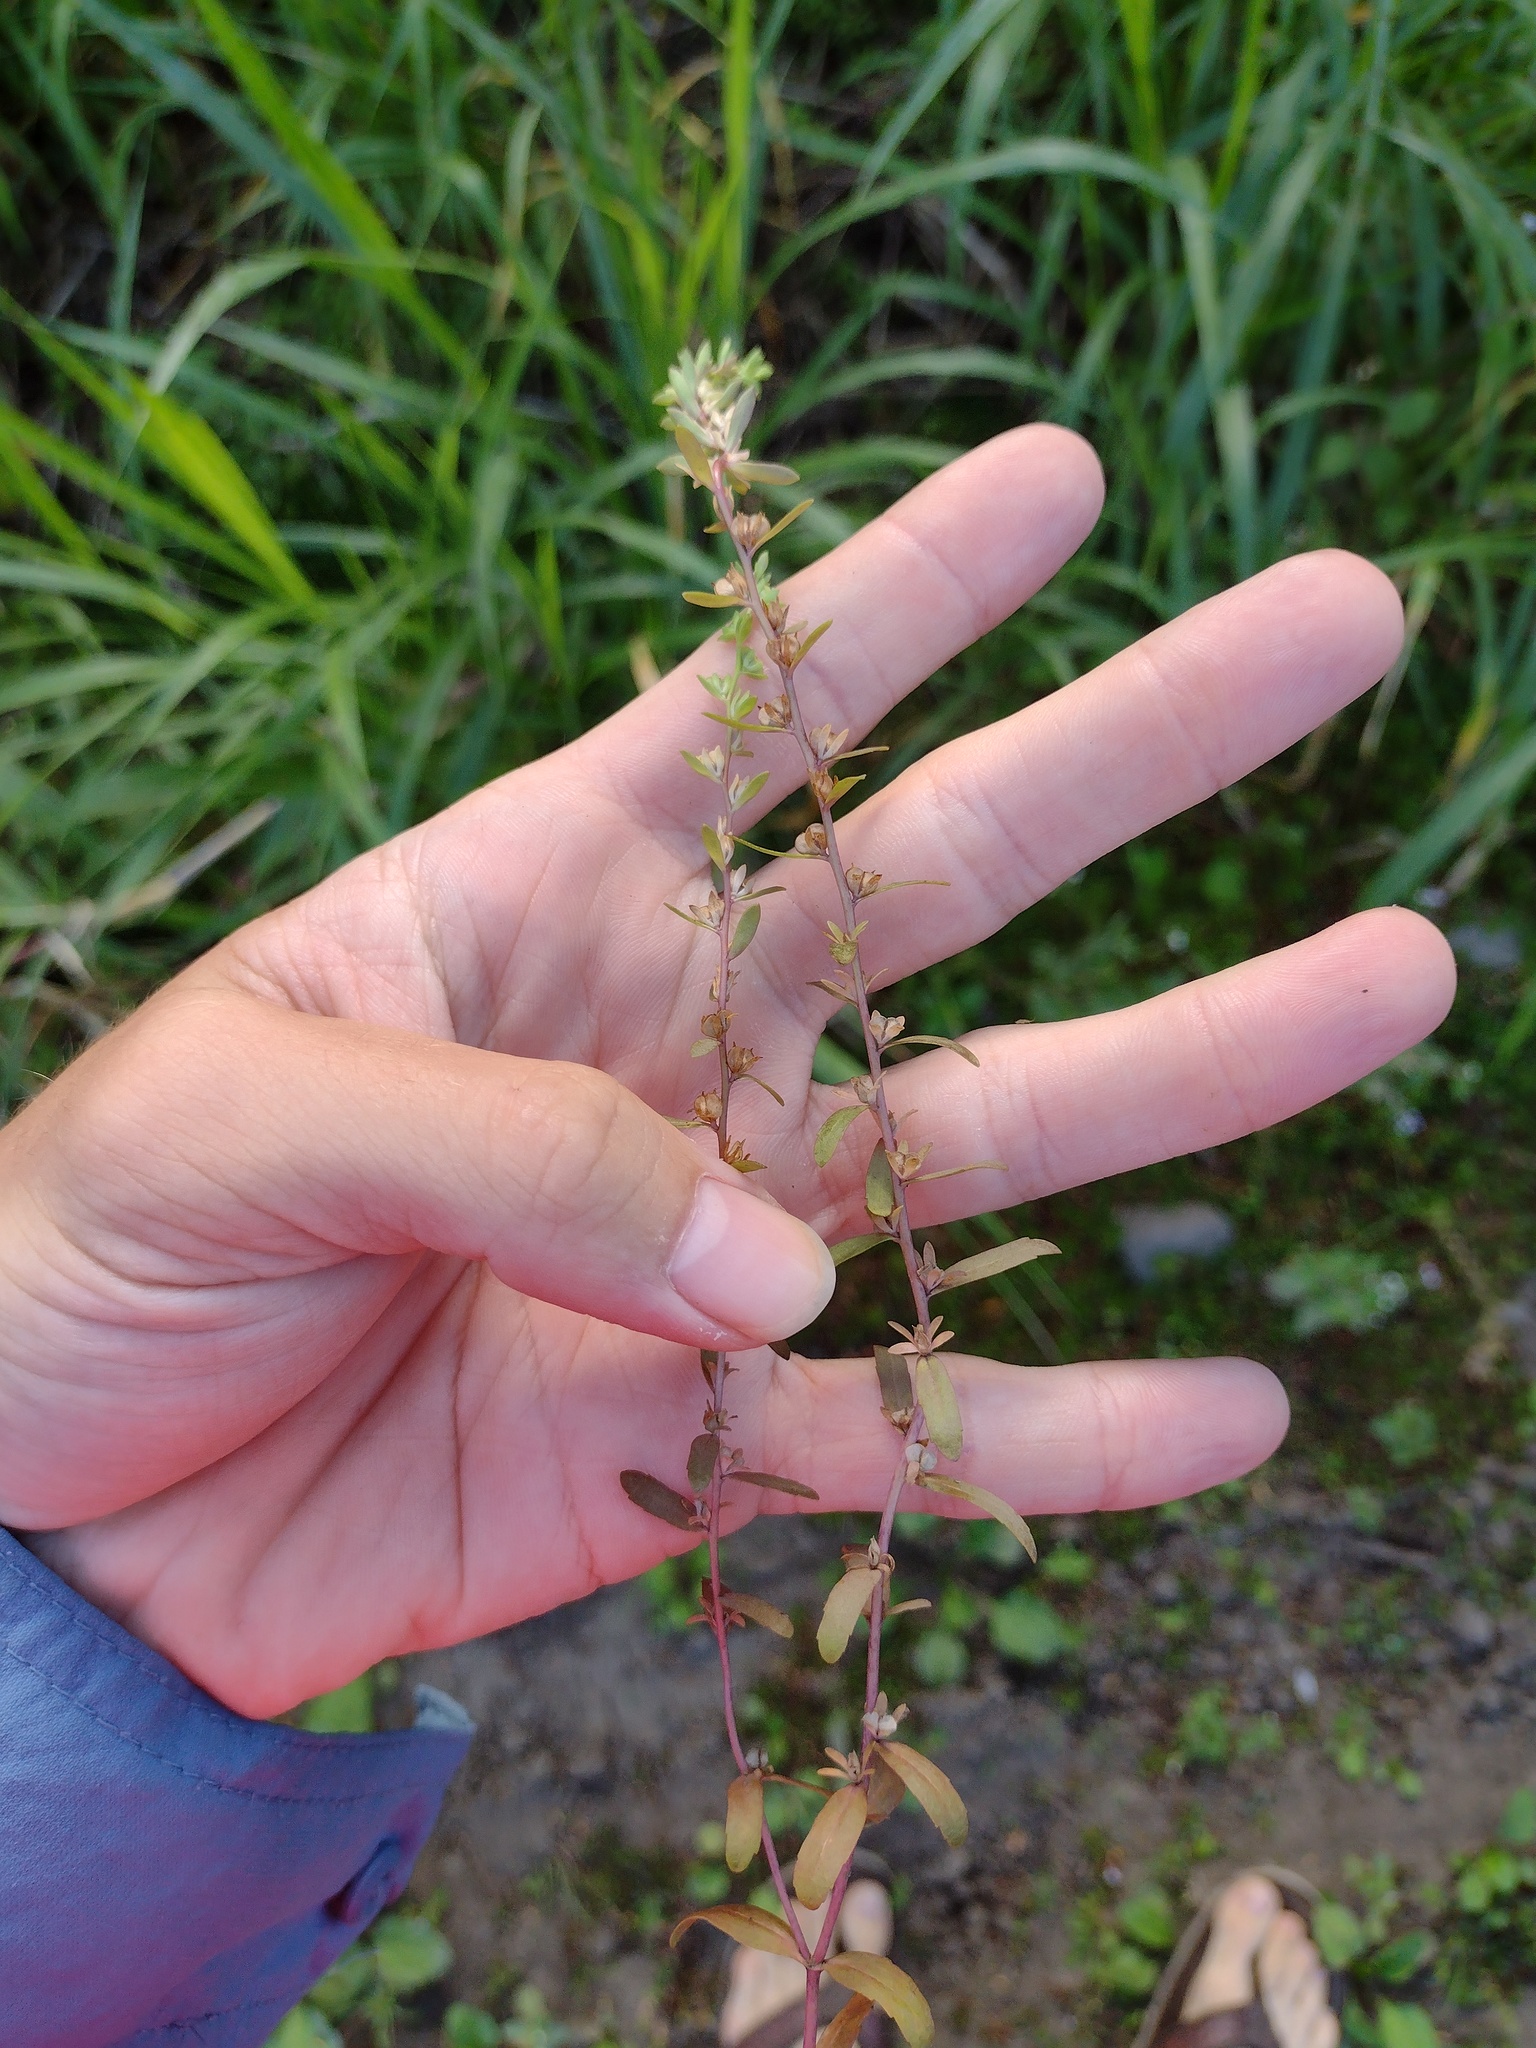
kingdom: Plantae
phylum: Tracheophyta
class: Magnoliopsida
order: Lamiales
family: Plantaginaceae
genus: Veronica
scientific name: Veronica peregrina
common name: Neckweed
